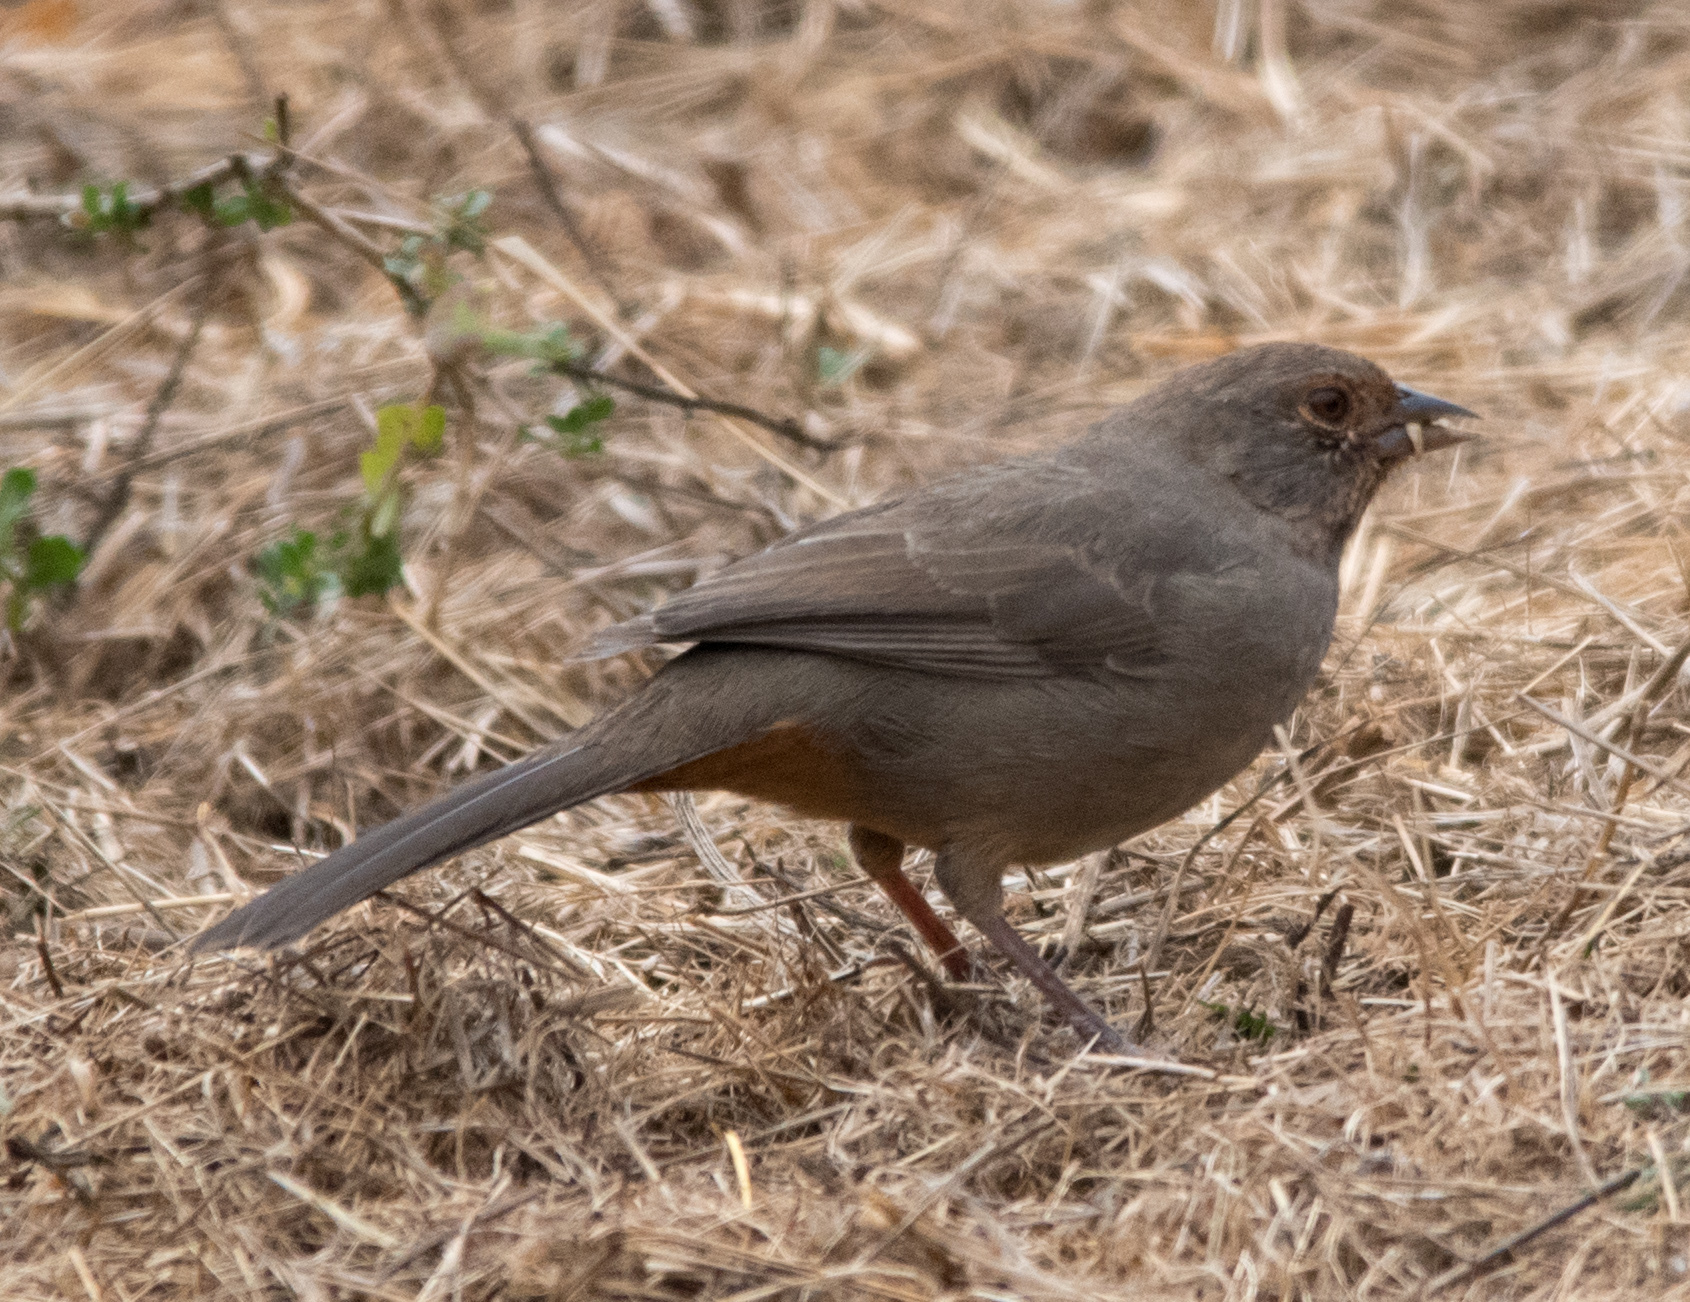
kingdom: Animalia
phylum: Chordata
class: Aves
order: Passeriformes
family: Passerellidae
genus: Melozone
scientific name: Melozone crissalis
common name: California towhee
